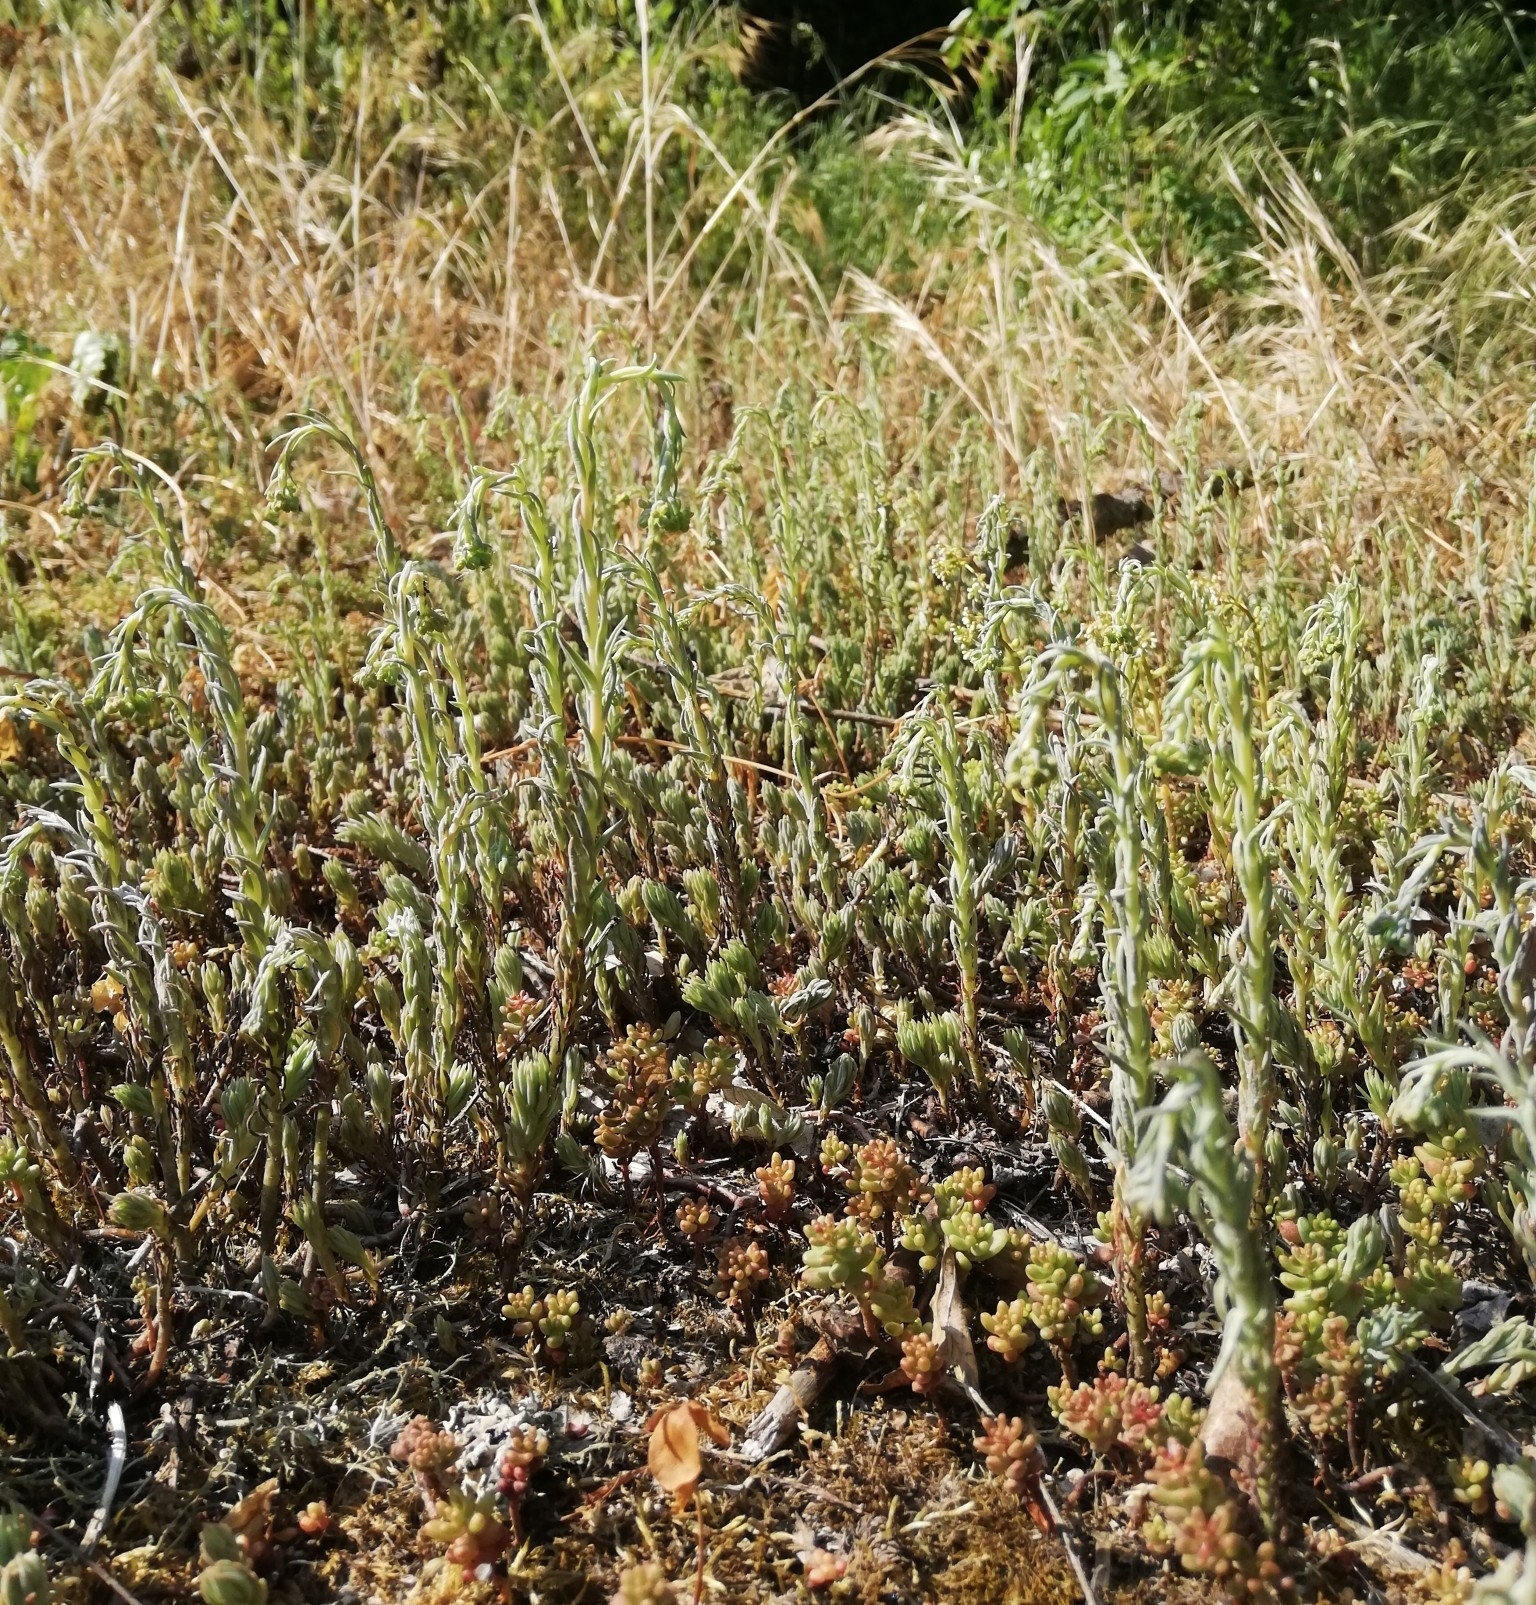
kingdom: Plantae
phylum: Tracheophyta
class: Magnoliopsida
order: Saxifragales
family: Crassulaceae
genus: Petrosedum
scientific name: Petrosedum rupestre
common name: Jenny's stonecrop
